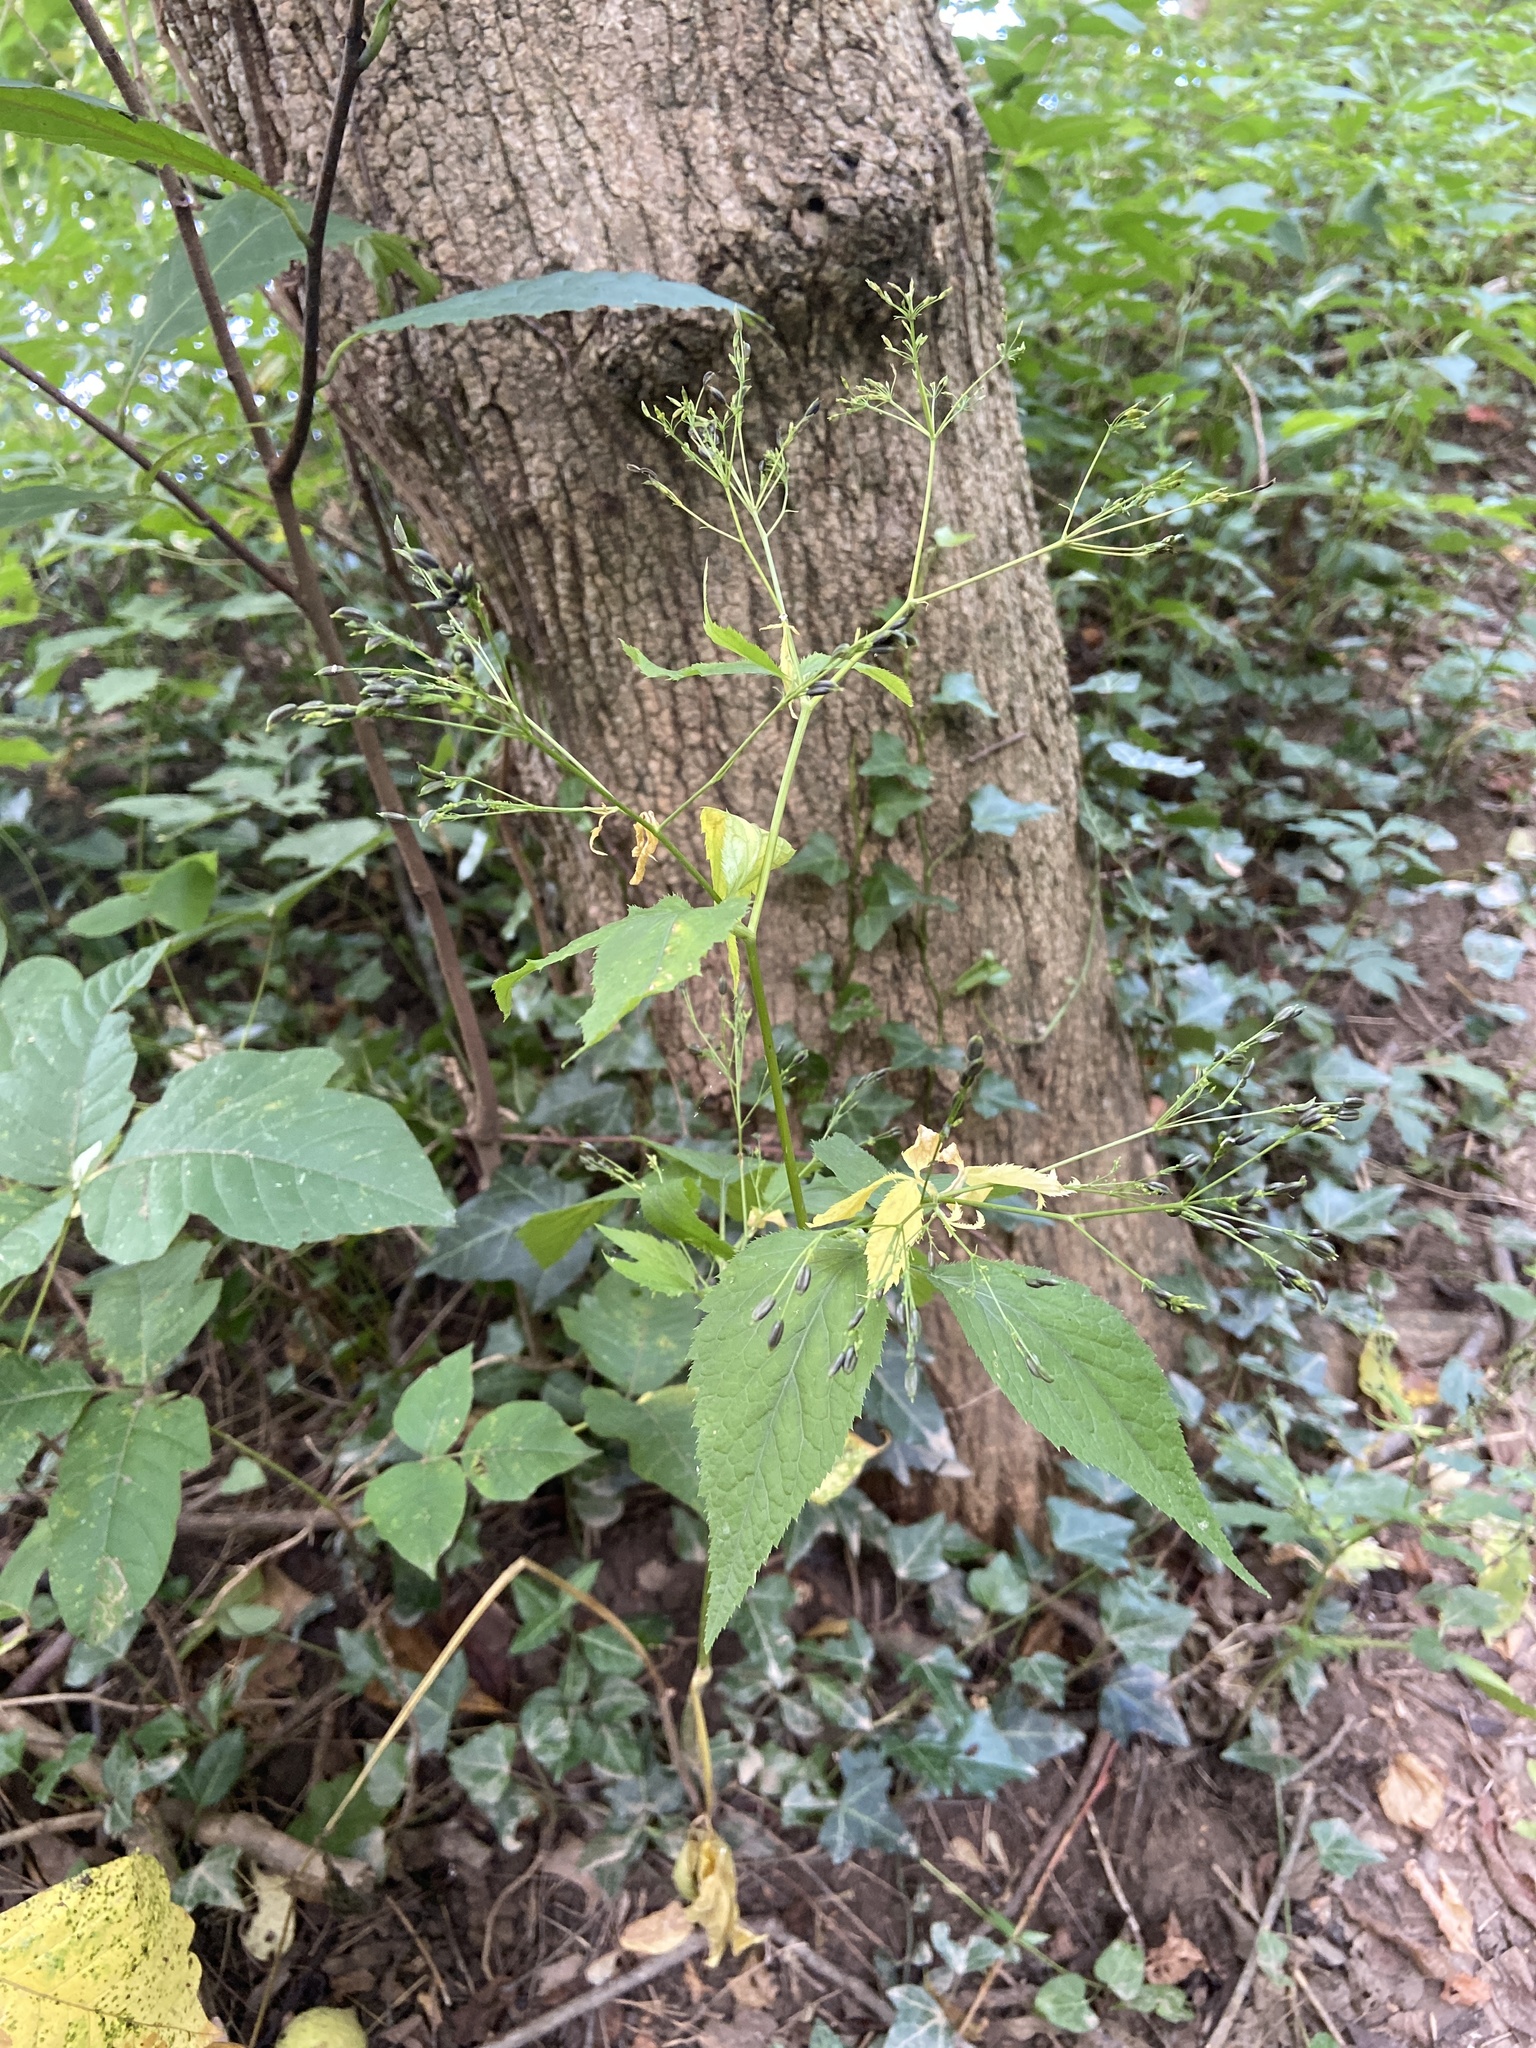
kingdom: Plantae
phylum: Tracheophyta
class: Magnoliopsida
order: Apiales
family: Apiaceae
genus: Cryptotaenia
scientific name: Cryptotaenia canadensis
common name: Honewort
